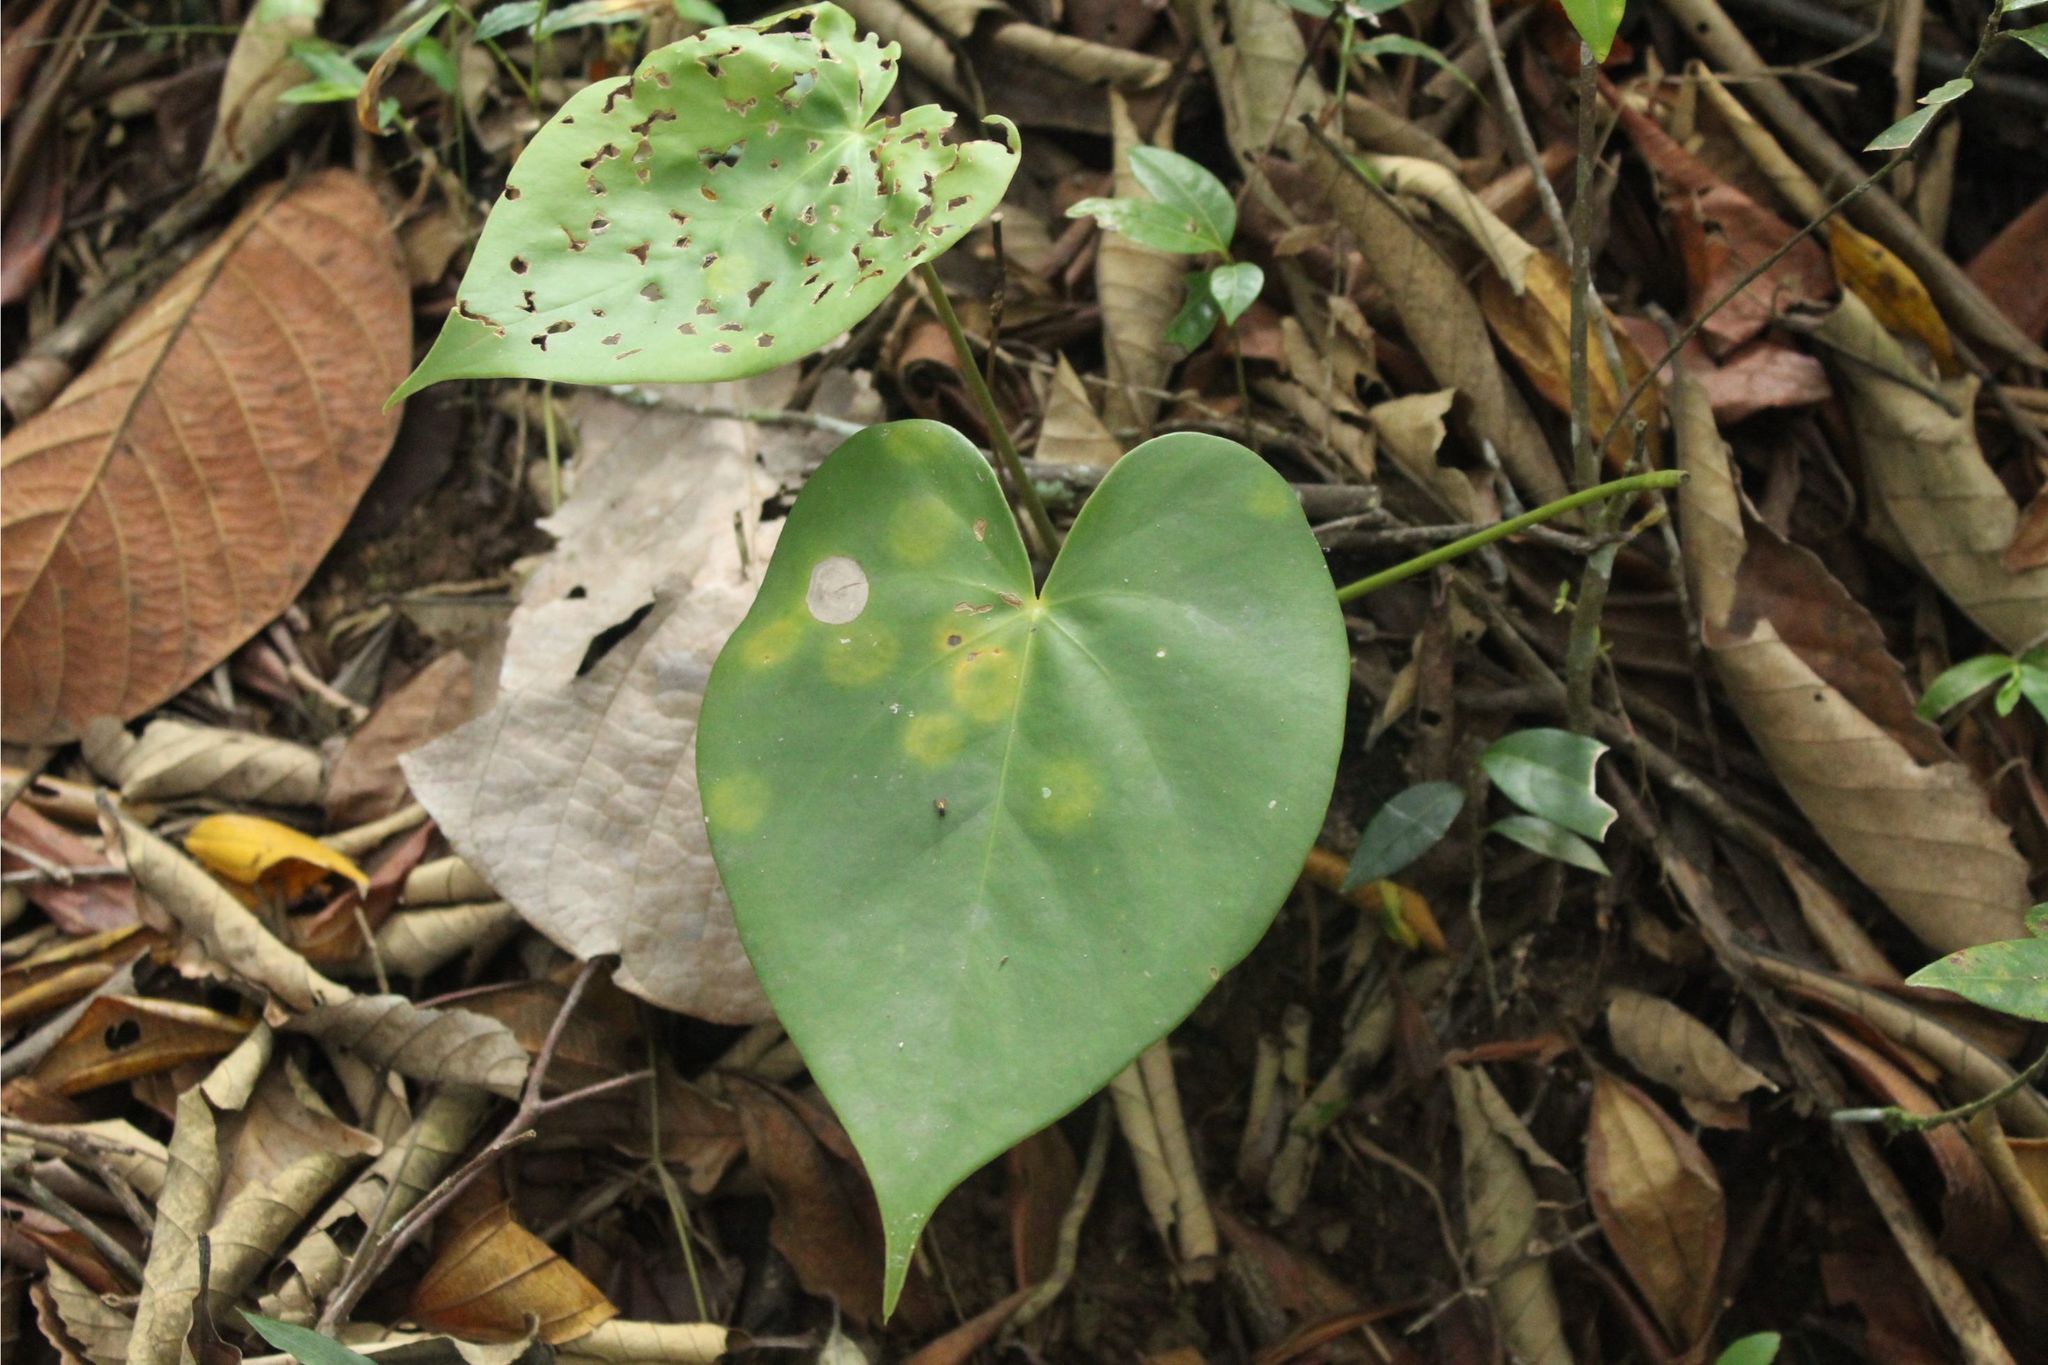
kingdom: Plantae
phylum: Tracheophyta
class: Liliopsida
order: Alismatales
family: Araceae
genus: Anthurium
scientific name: Anthurium
